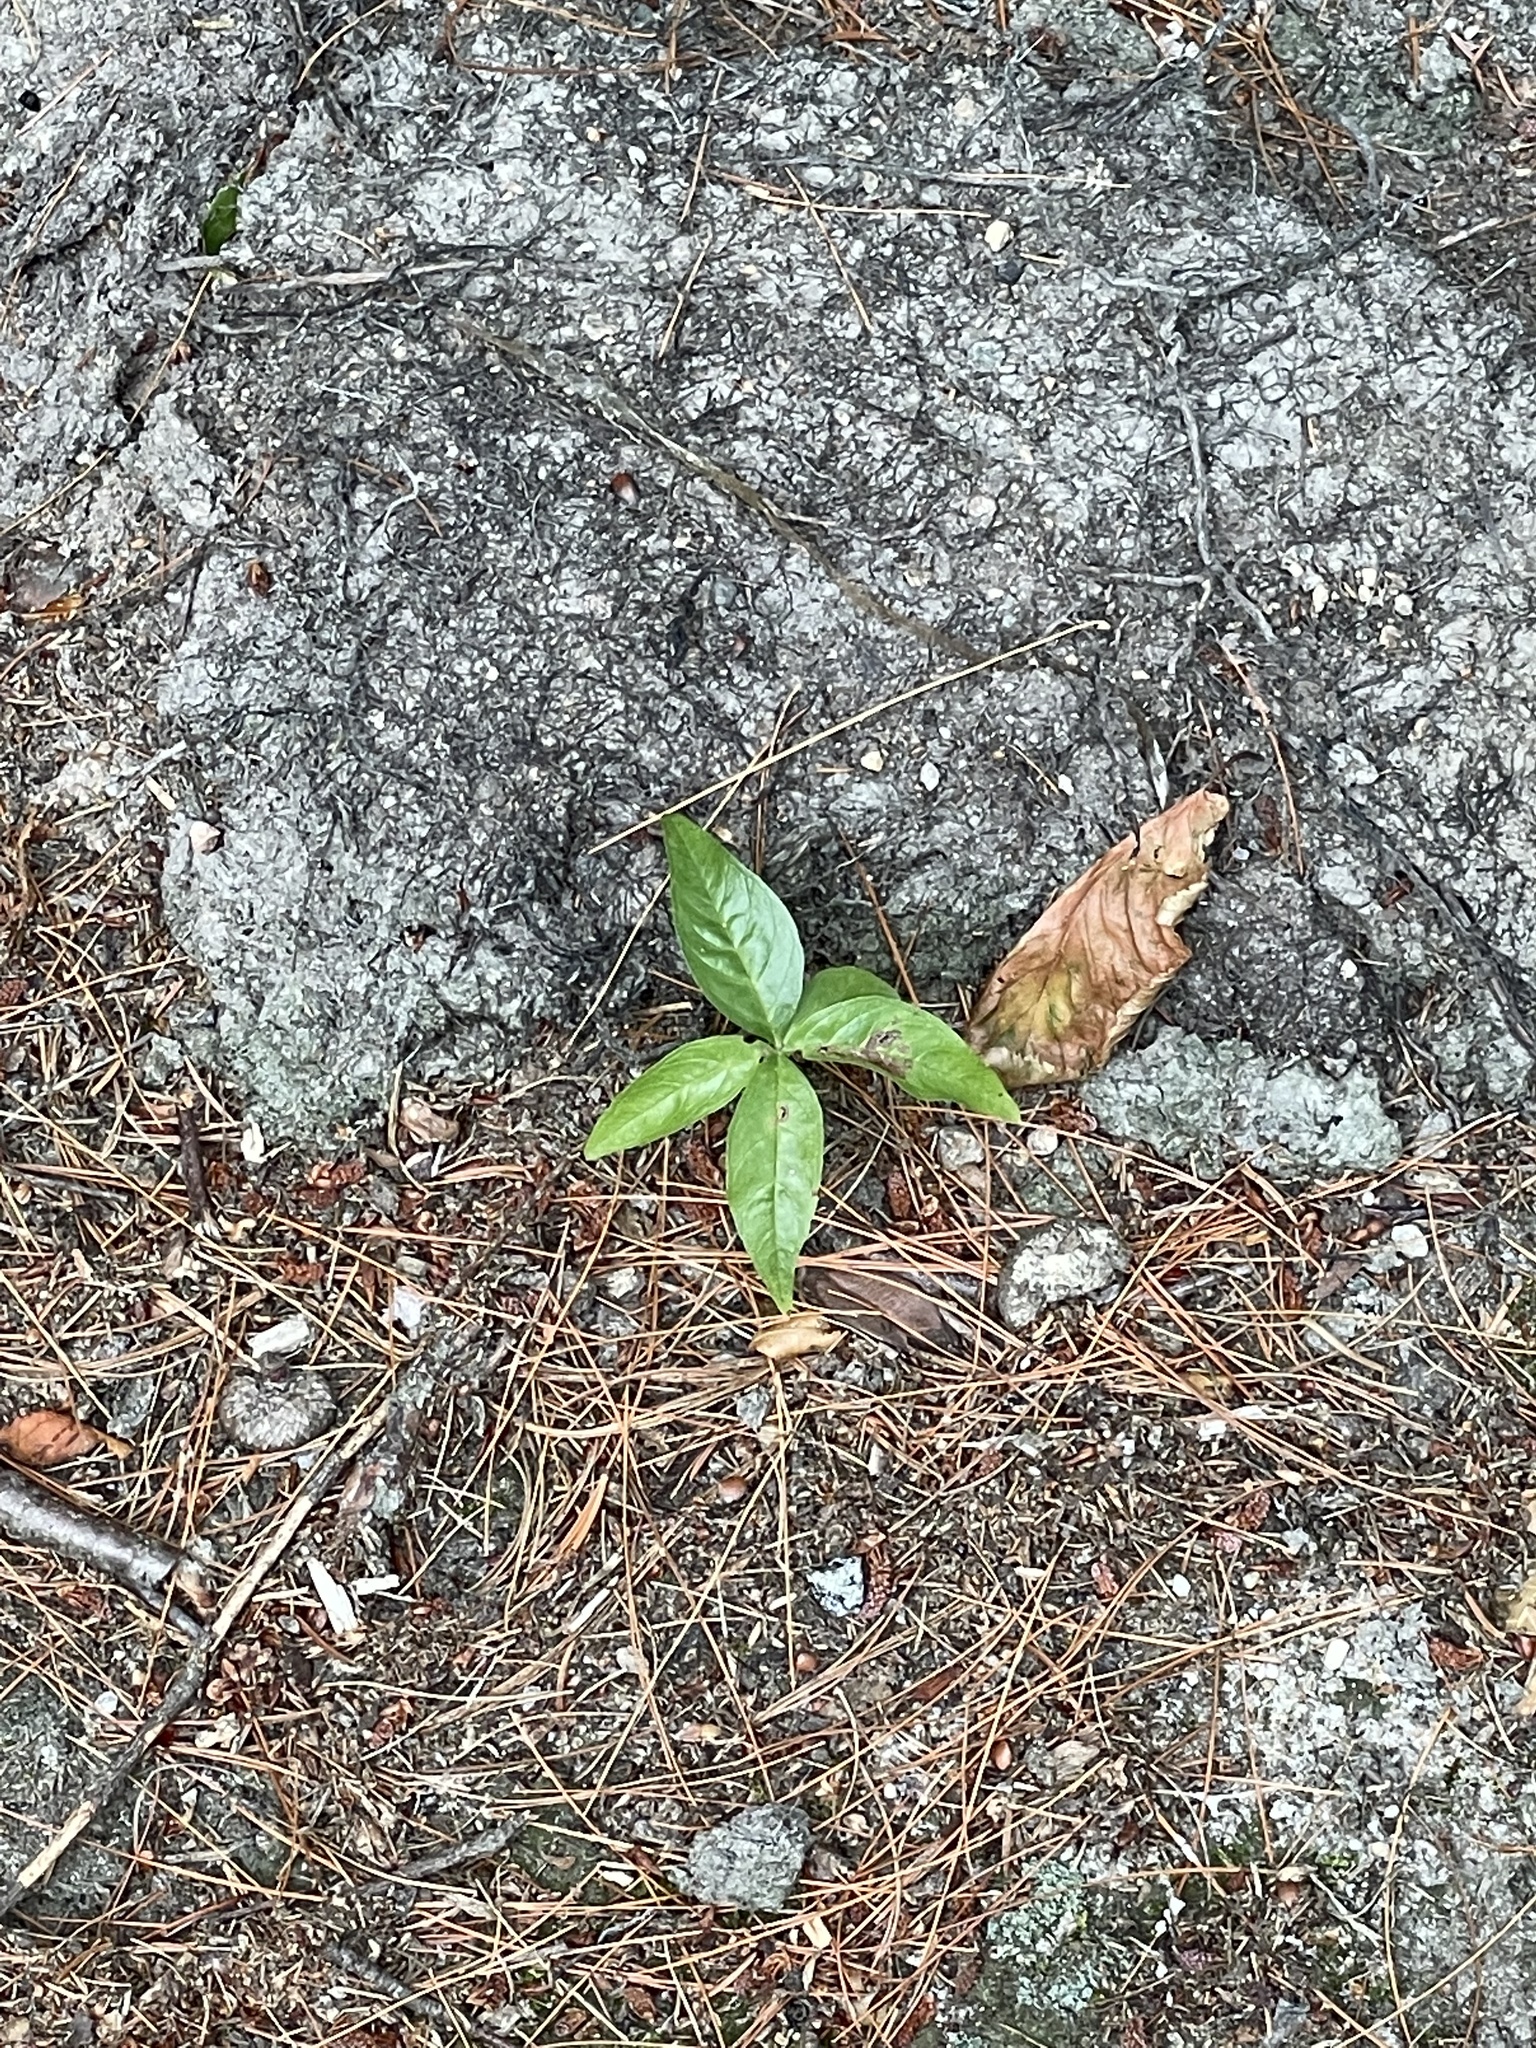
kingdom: Plantae
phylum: Tracheophyta
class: Magnoliopsida
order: Ericales
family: Primulaceae
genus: Lysimachia
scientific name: Lysimachia borealis
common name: American starflower
